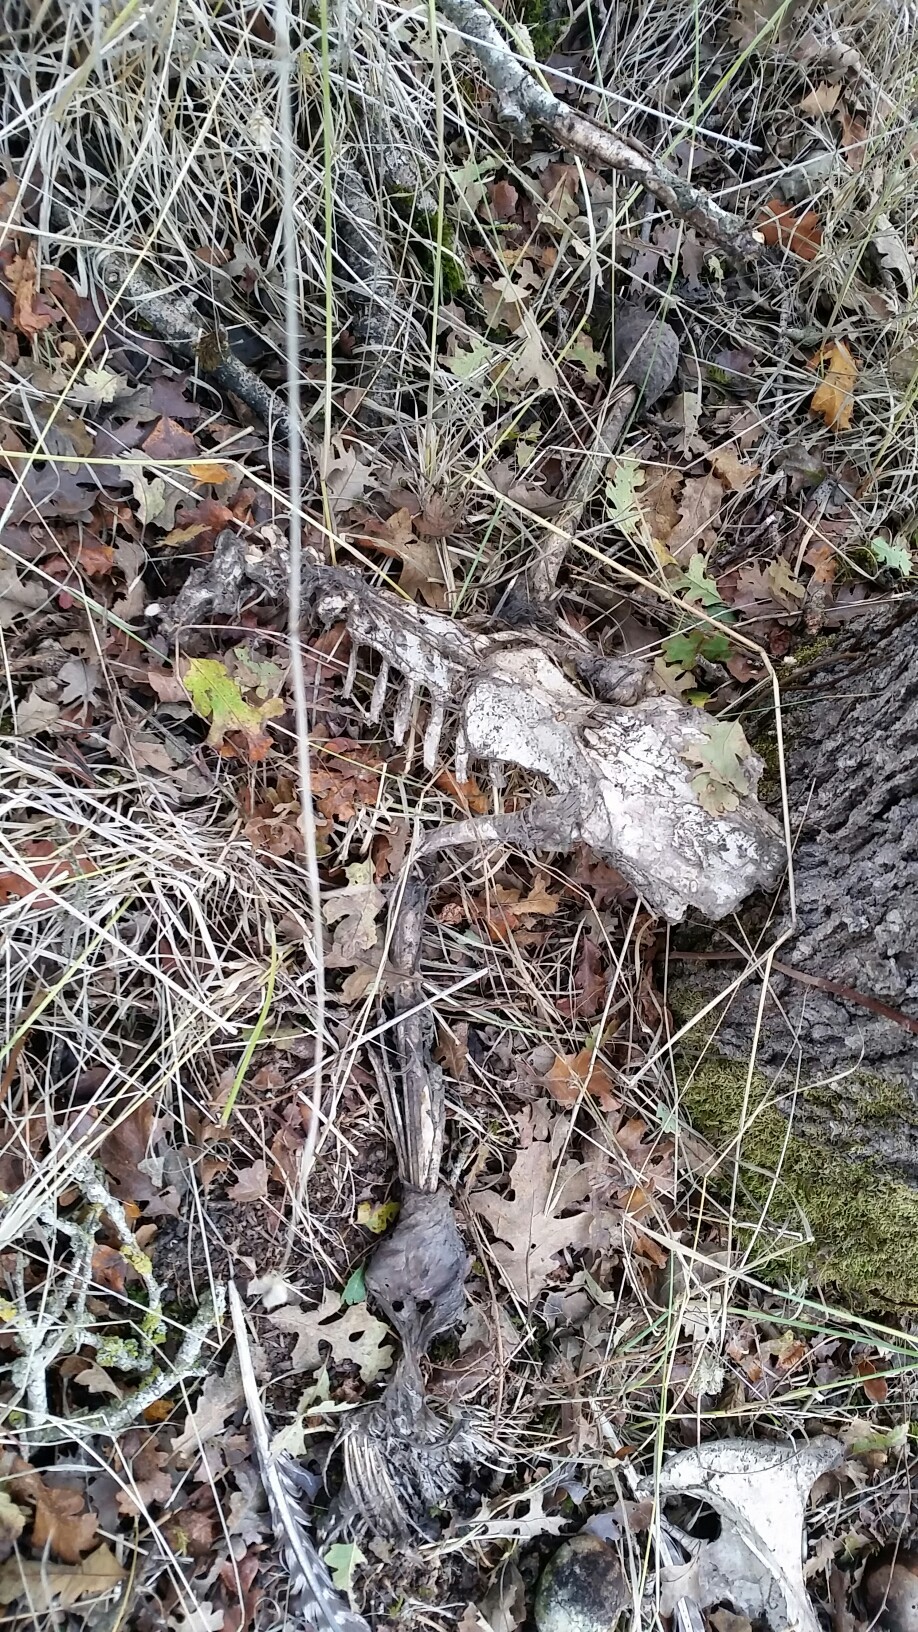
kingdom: Animalia
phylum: Chordata
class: Aves
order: Galliformes
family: Phasianidae
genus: Meleagris
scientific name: Meleagris gallopavo
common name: Wild turkey
